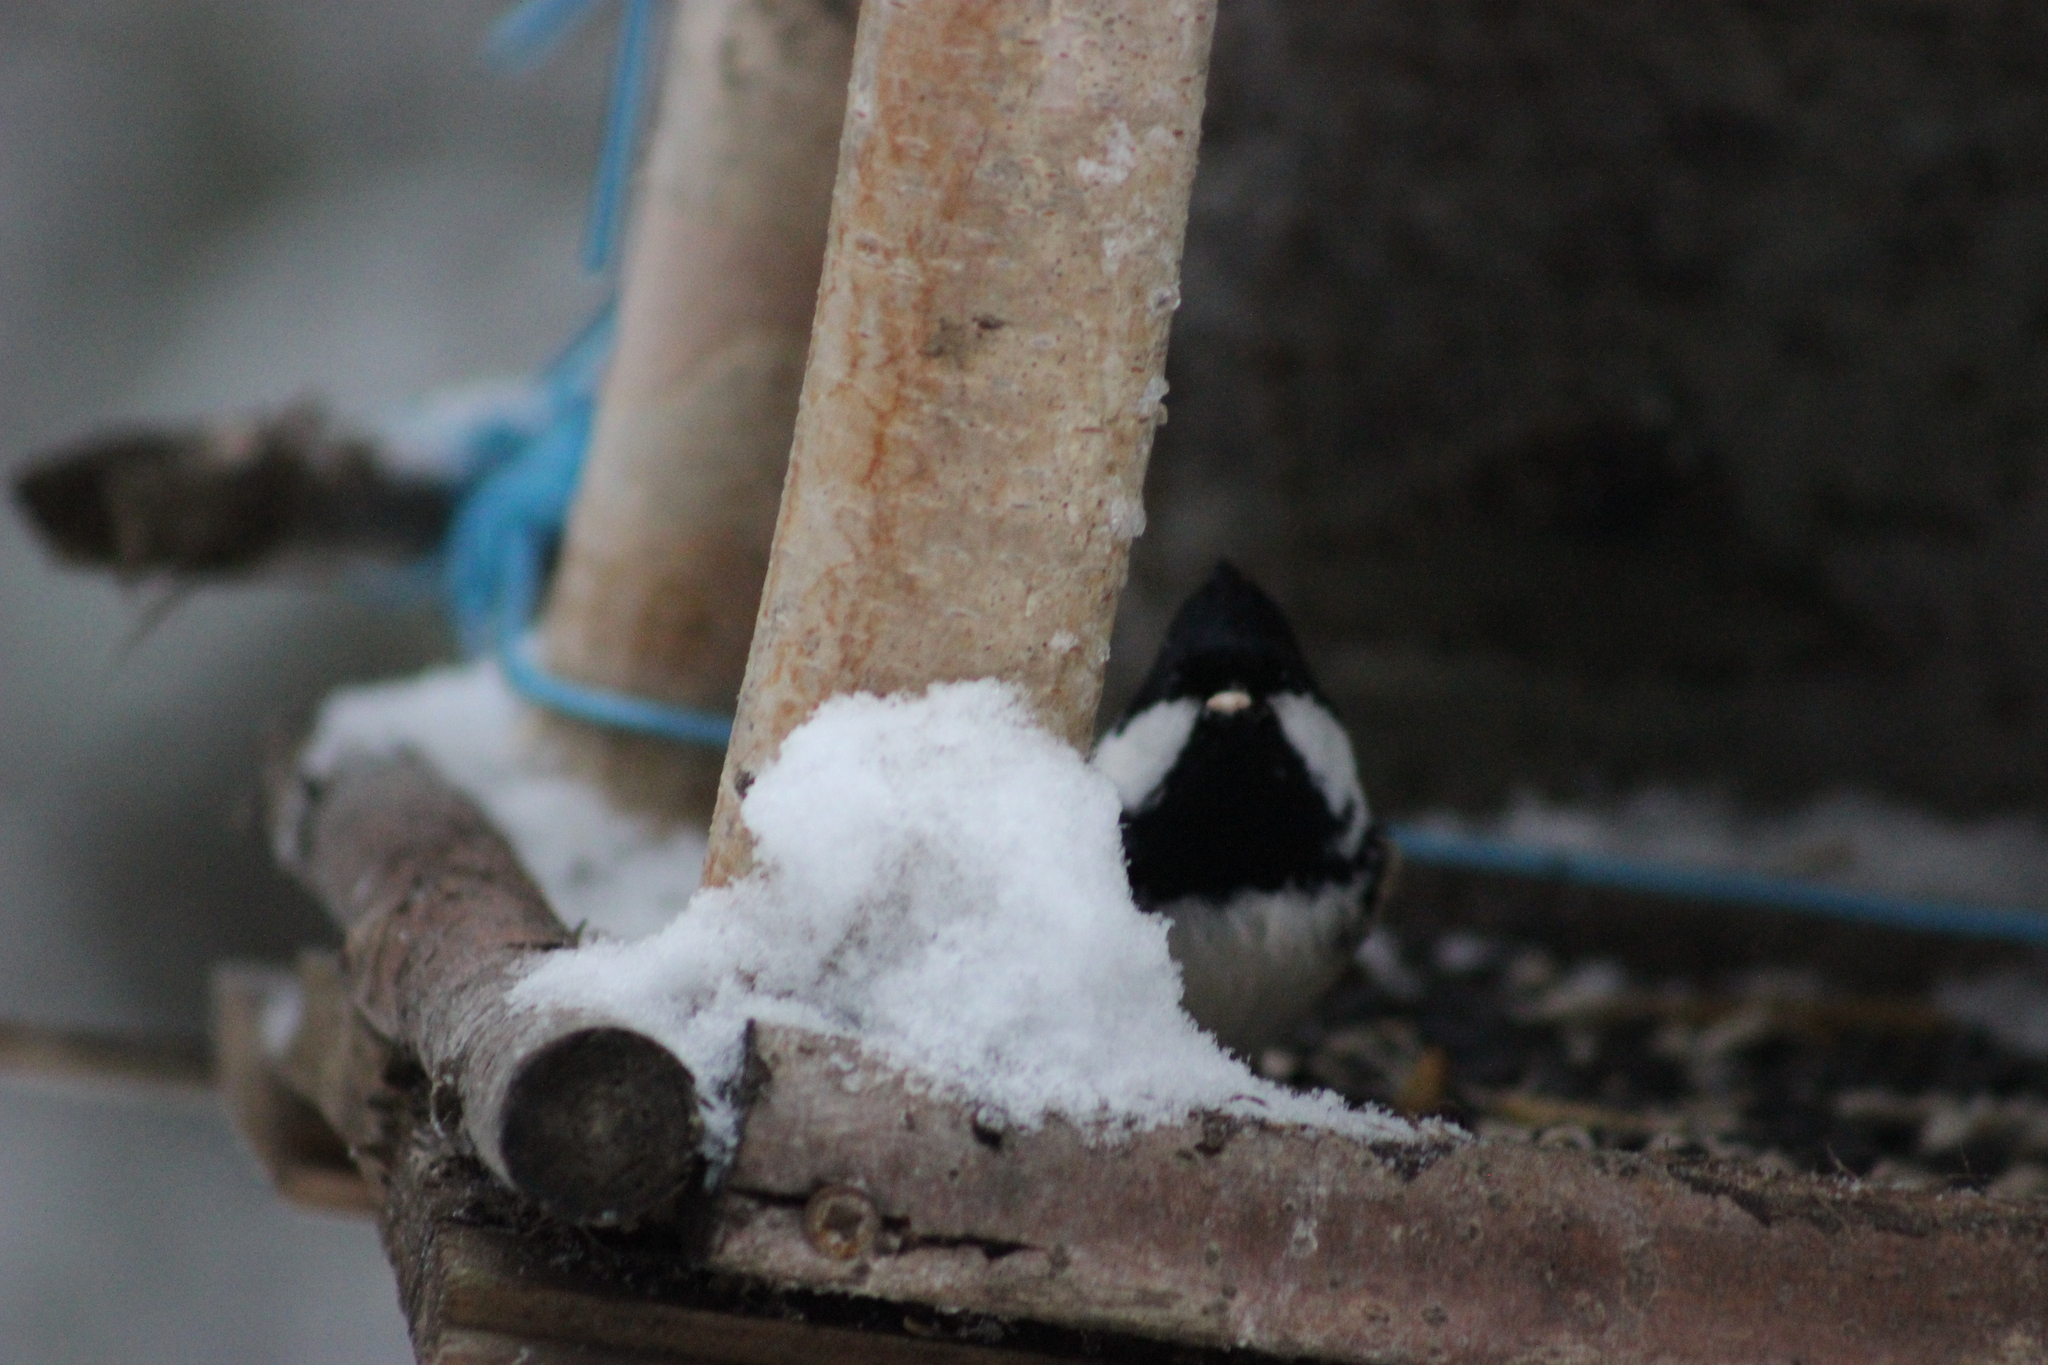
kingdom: Animalia
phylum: Chordata
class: Aves
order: Passeriformes
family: Paridae
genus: Periparus
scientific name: Periparus ater
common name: Coal tit
